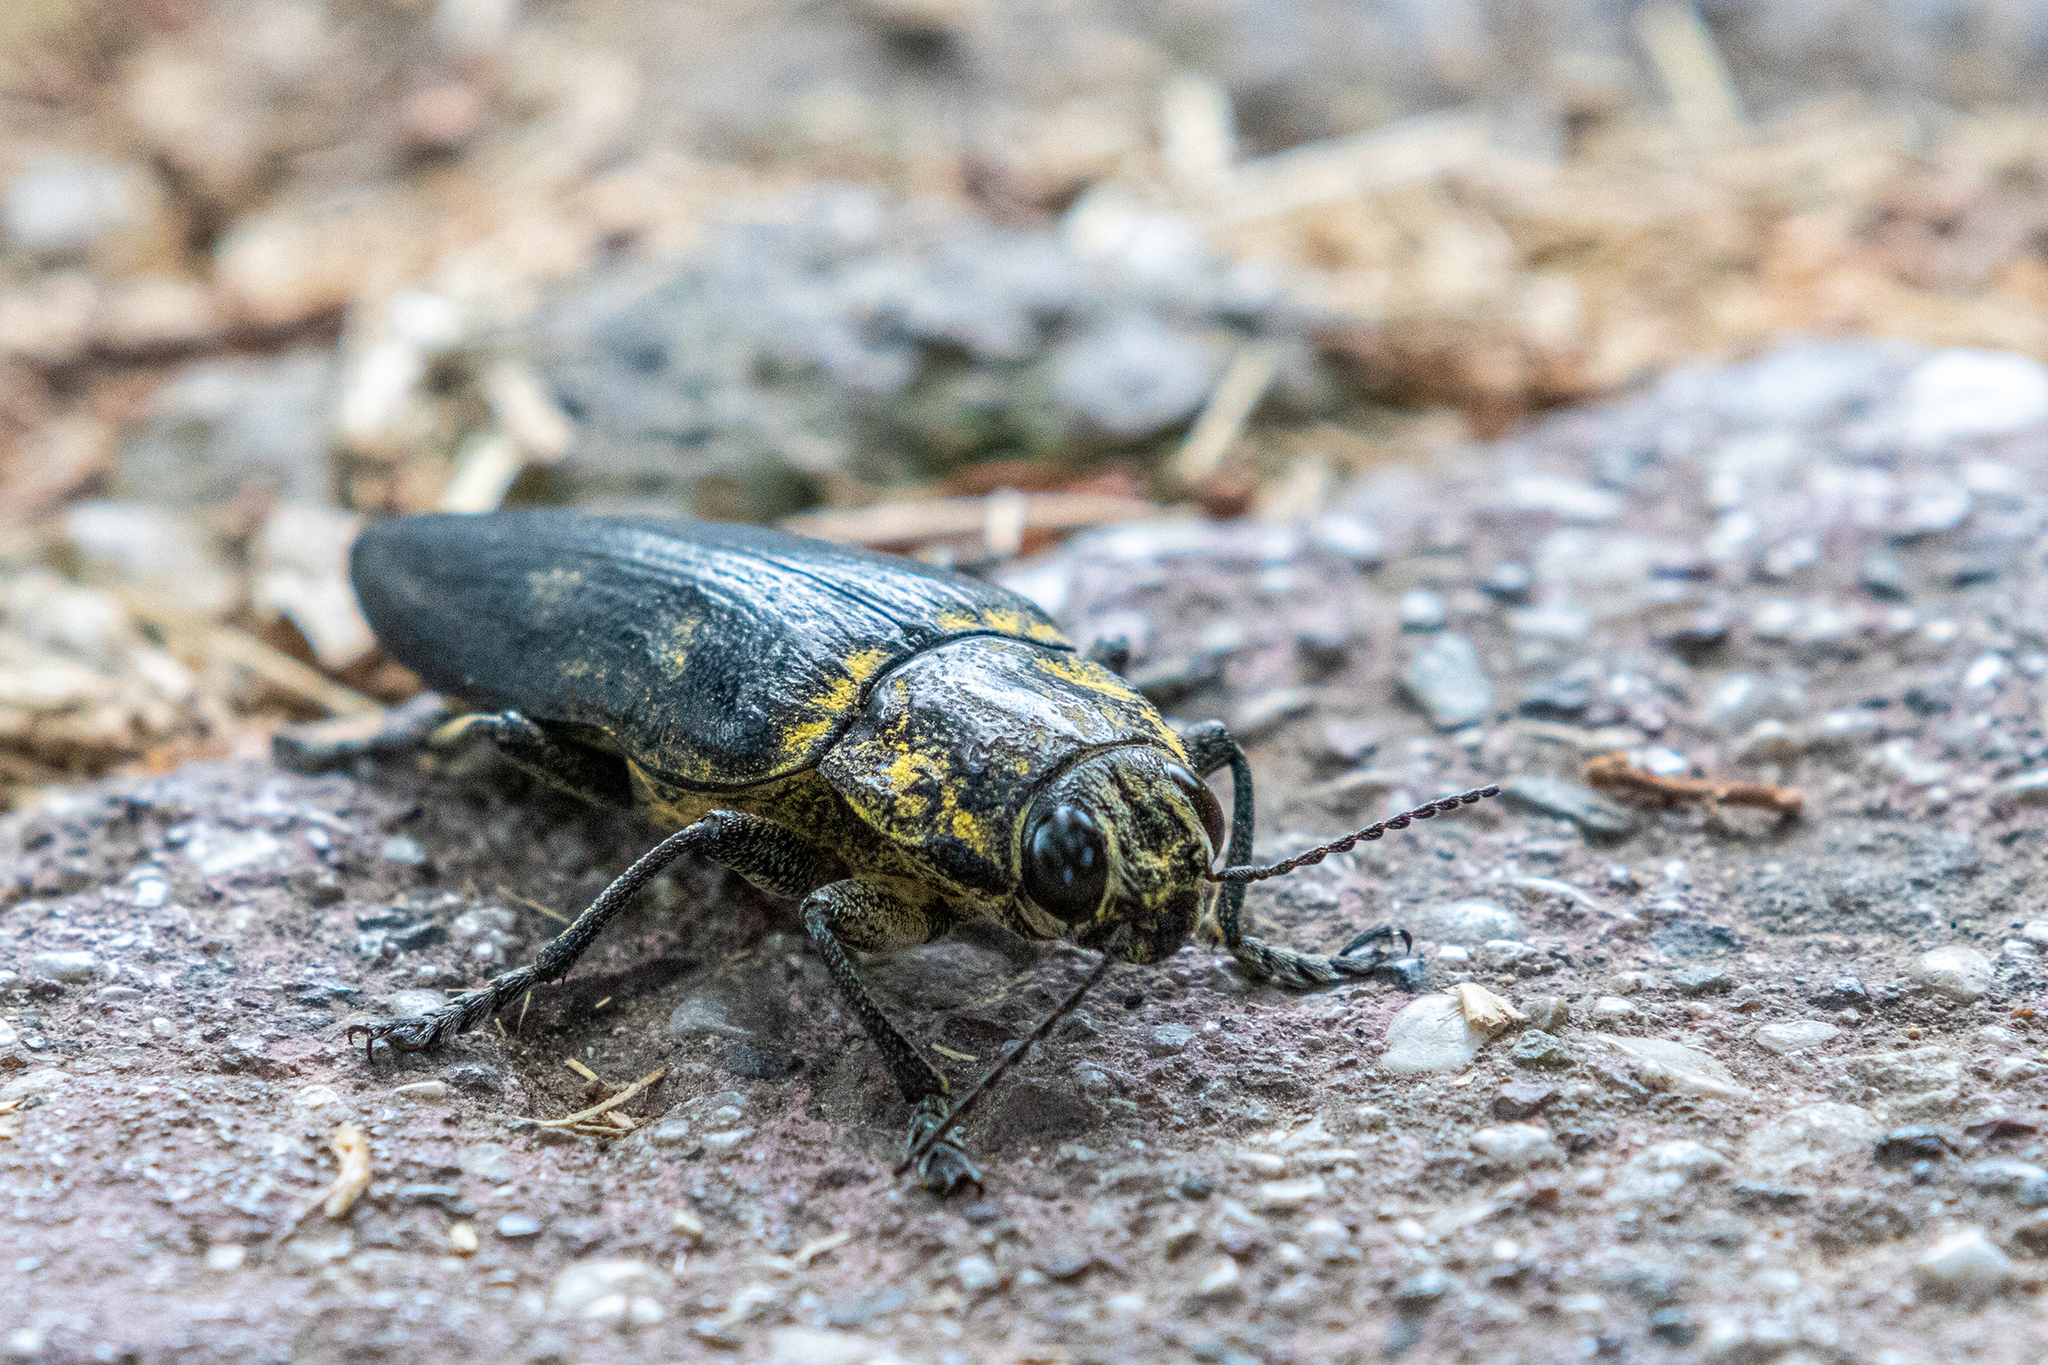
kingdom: Animalia
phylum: Arthropoda
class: Insecta
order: Coleoptera
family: Buprestidae
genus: Chalcophora
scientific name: Chalcophora detrita
